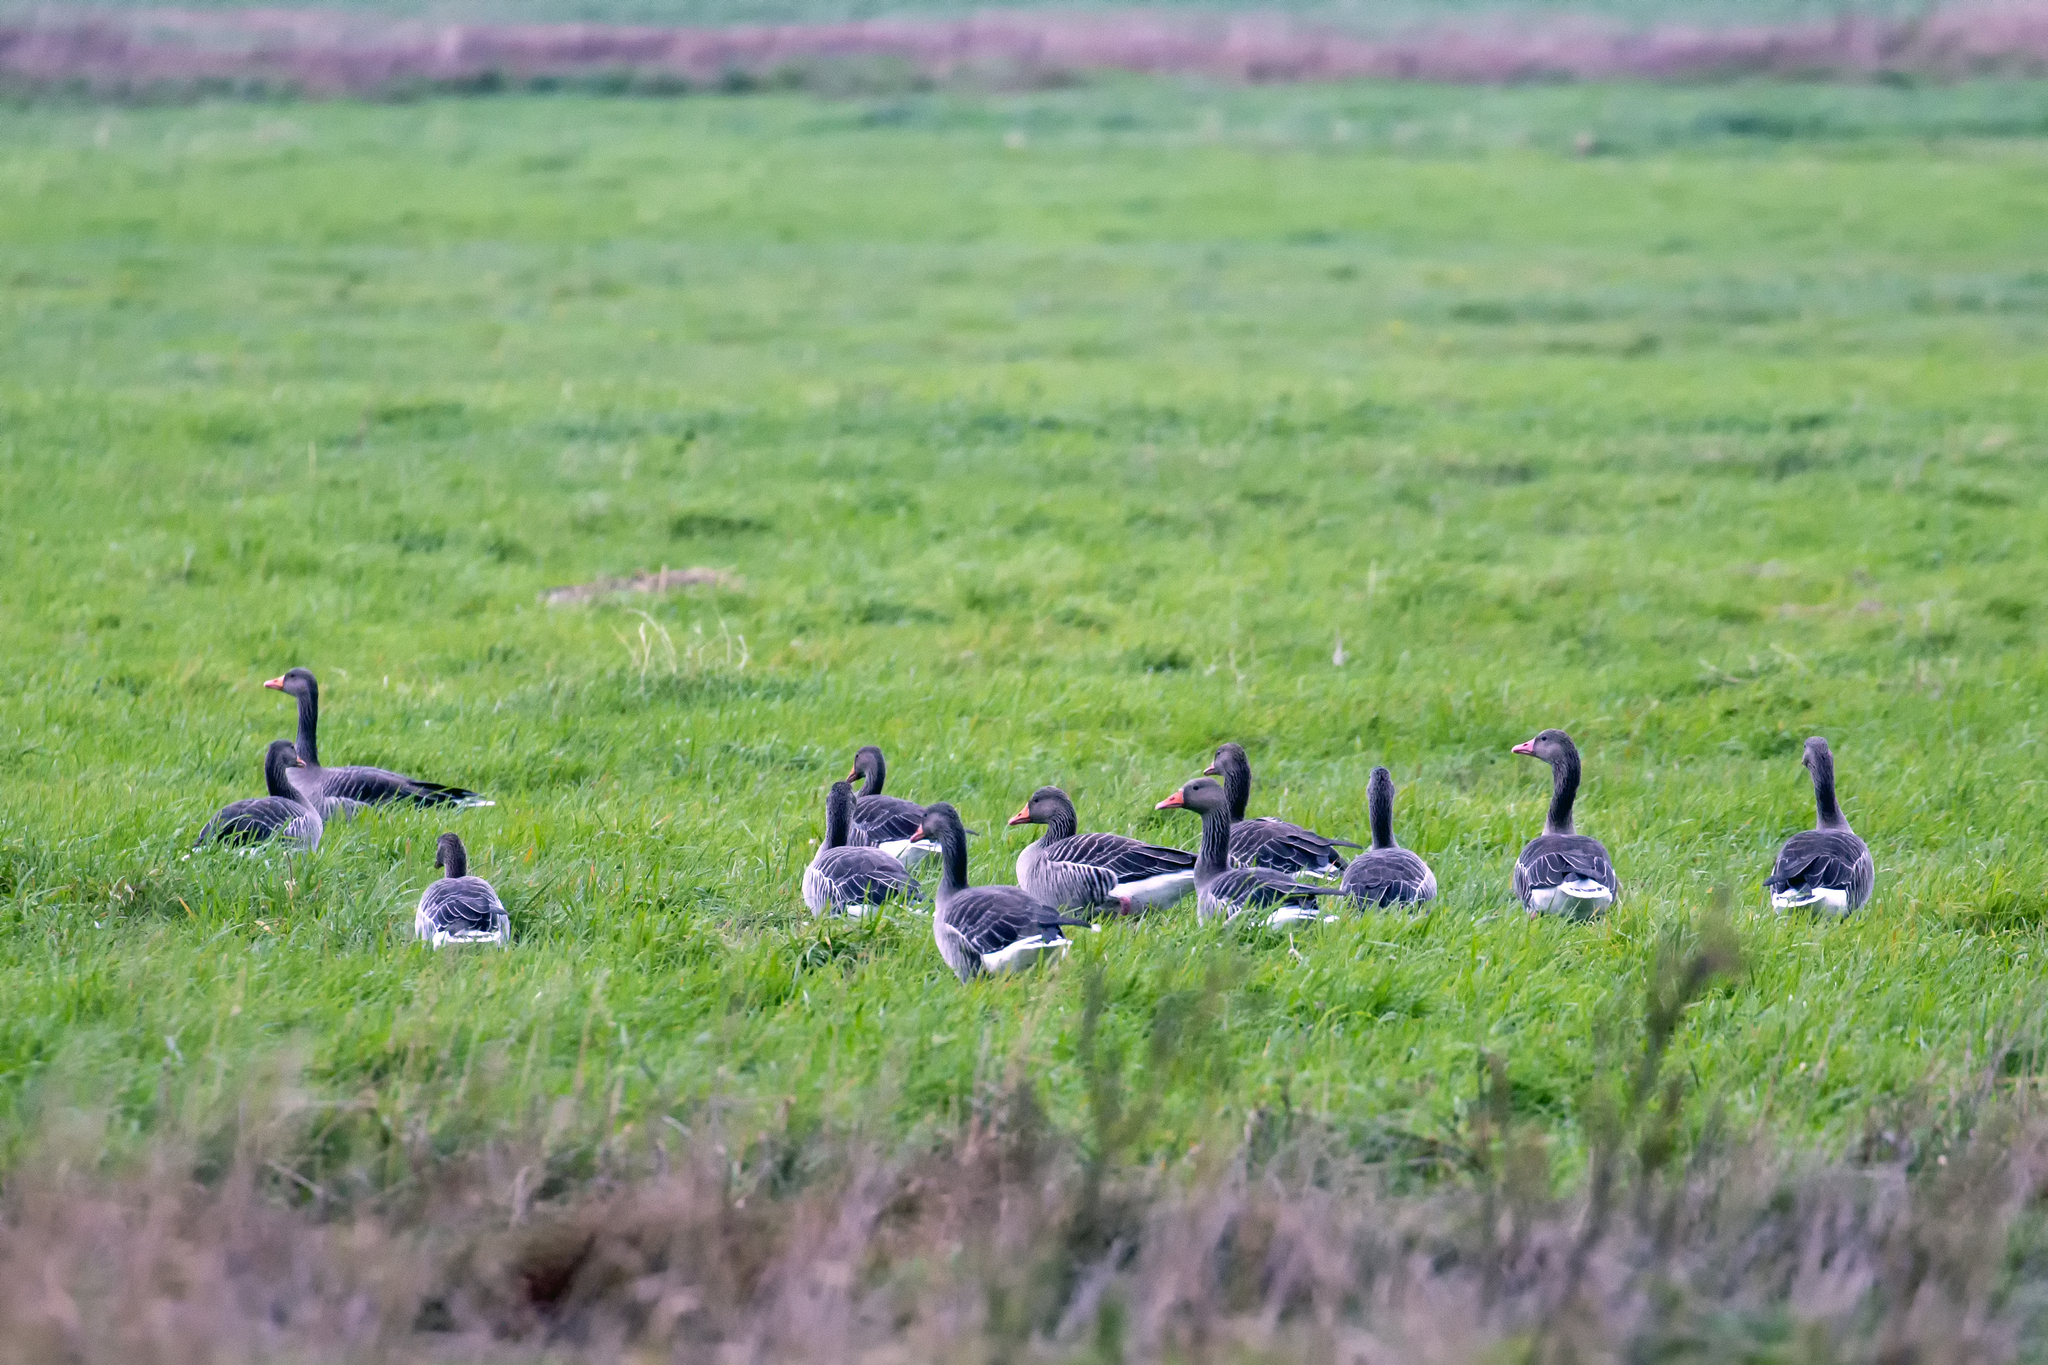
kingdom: Animalia
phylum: Chordata
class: Aves
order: Anseriformes
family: Anatidae
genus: Anser
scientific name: Anser anser
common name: Greylag goose
